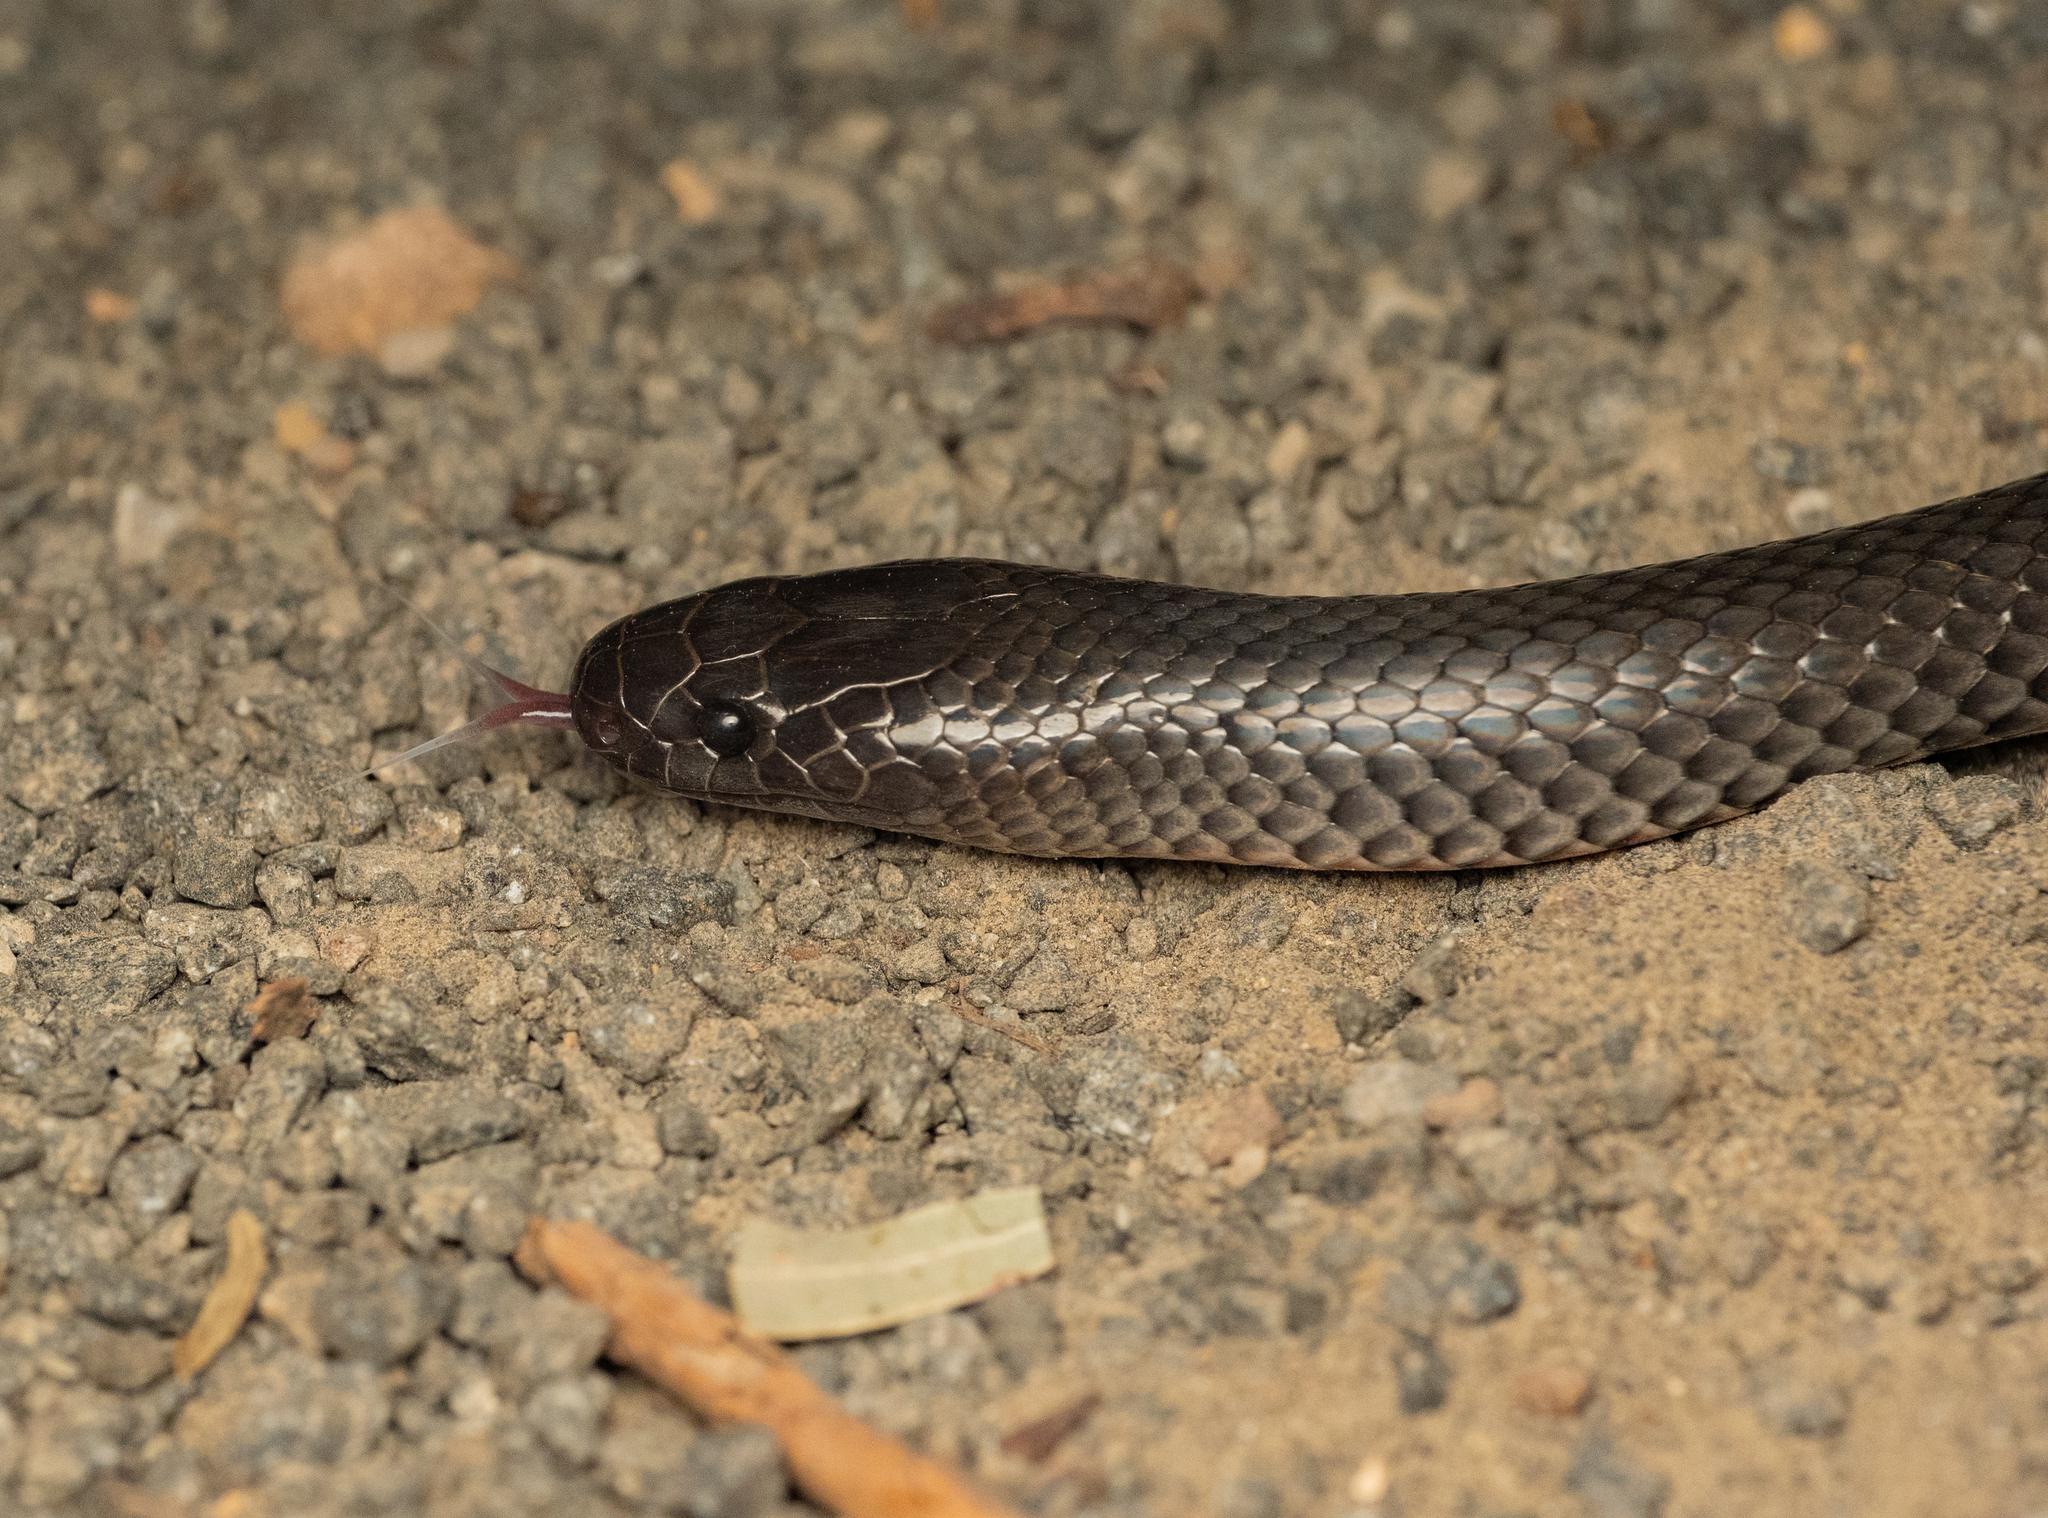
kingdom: Animalia
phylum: Chordata
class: Squamata
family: Elapidae
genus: Cryptophis
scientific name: Cryptophis nigrescens
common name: Eastern small-eyed snake
